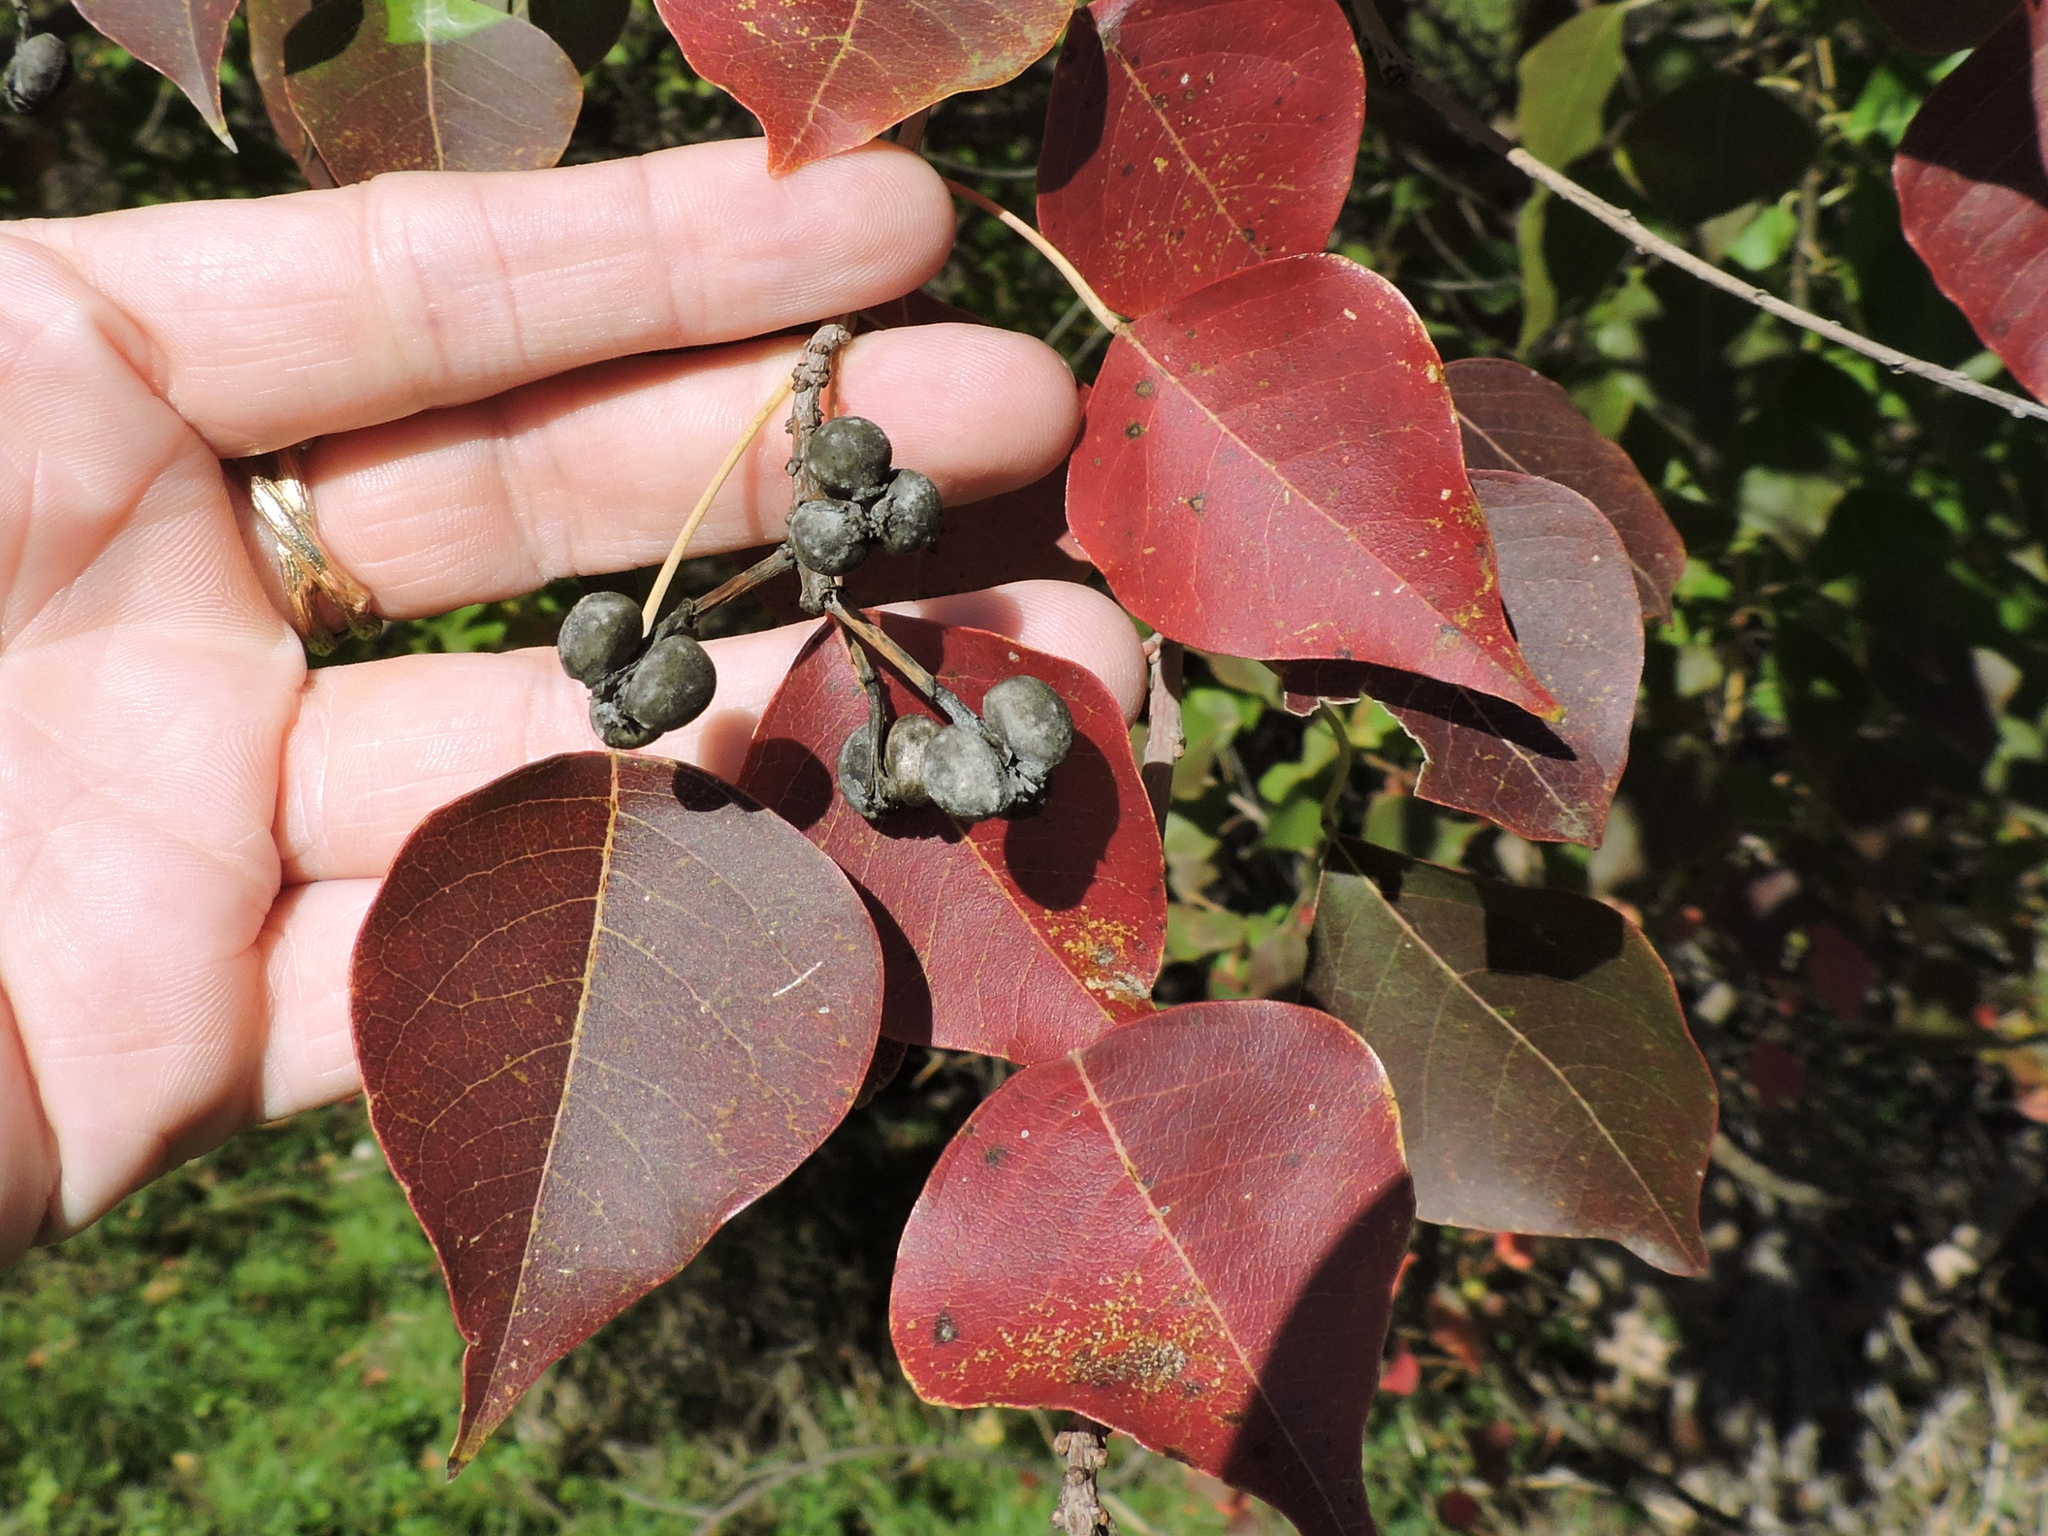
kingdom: Plantae
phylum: Tracheophyta
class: Magnoliopsida
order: Malpighiales
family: Euphorbiaceae
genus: Triadica
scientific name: Triadica sebifera
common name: Chinese tallow
